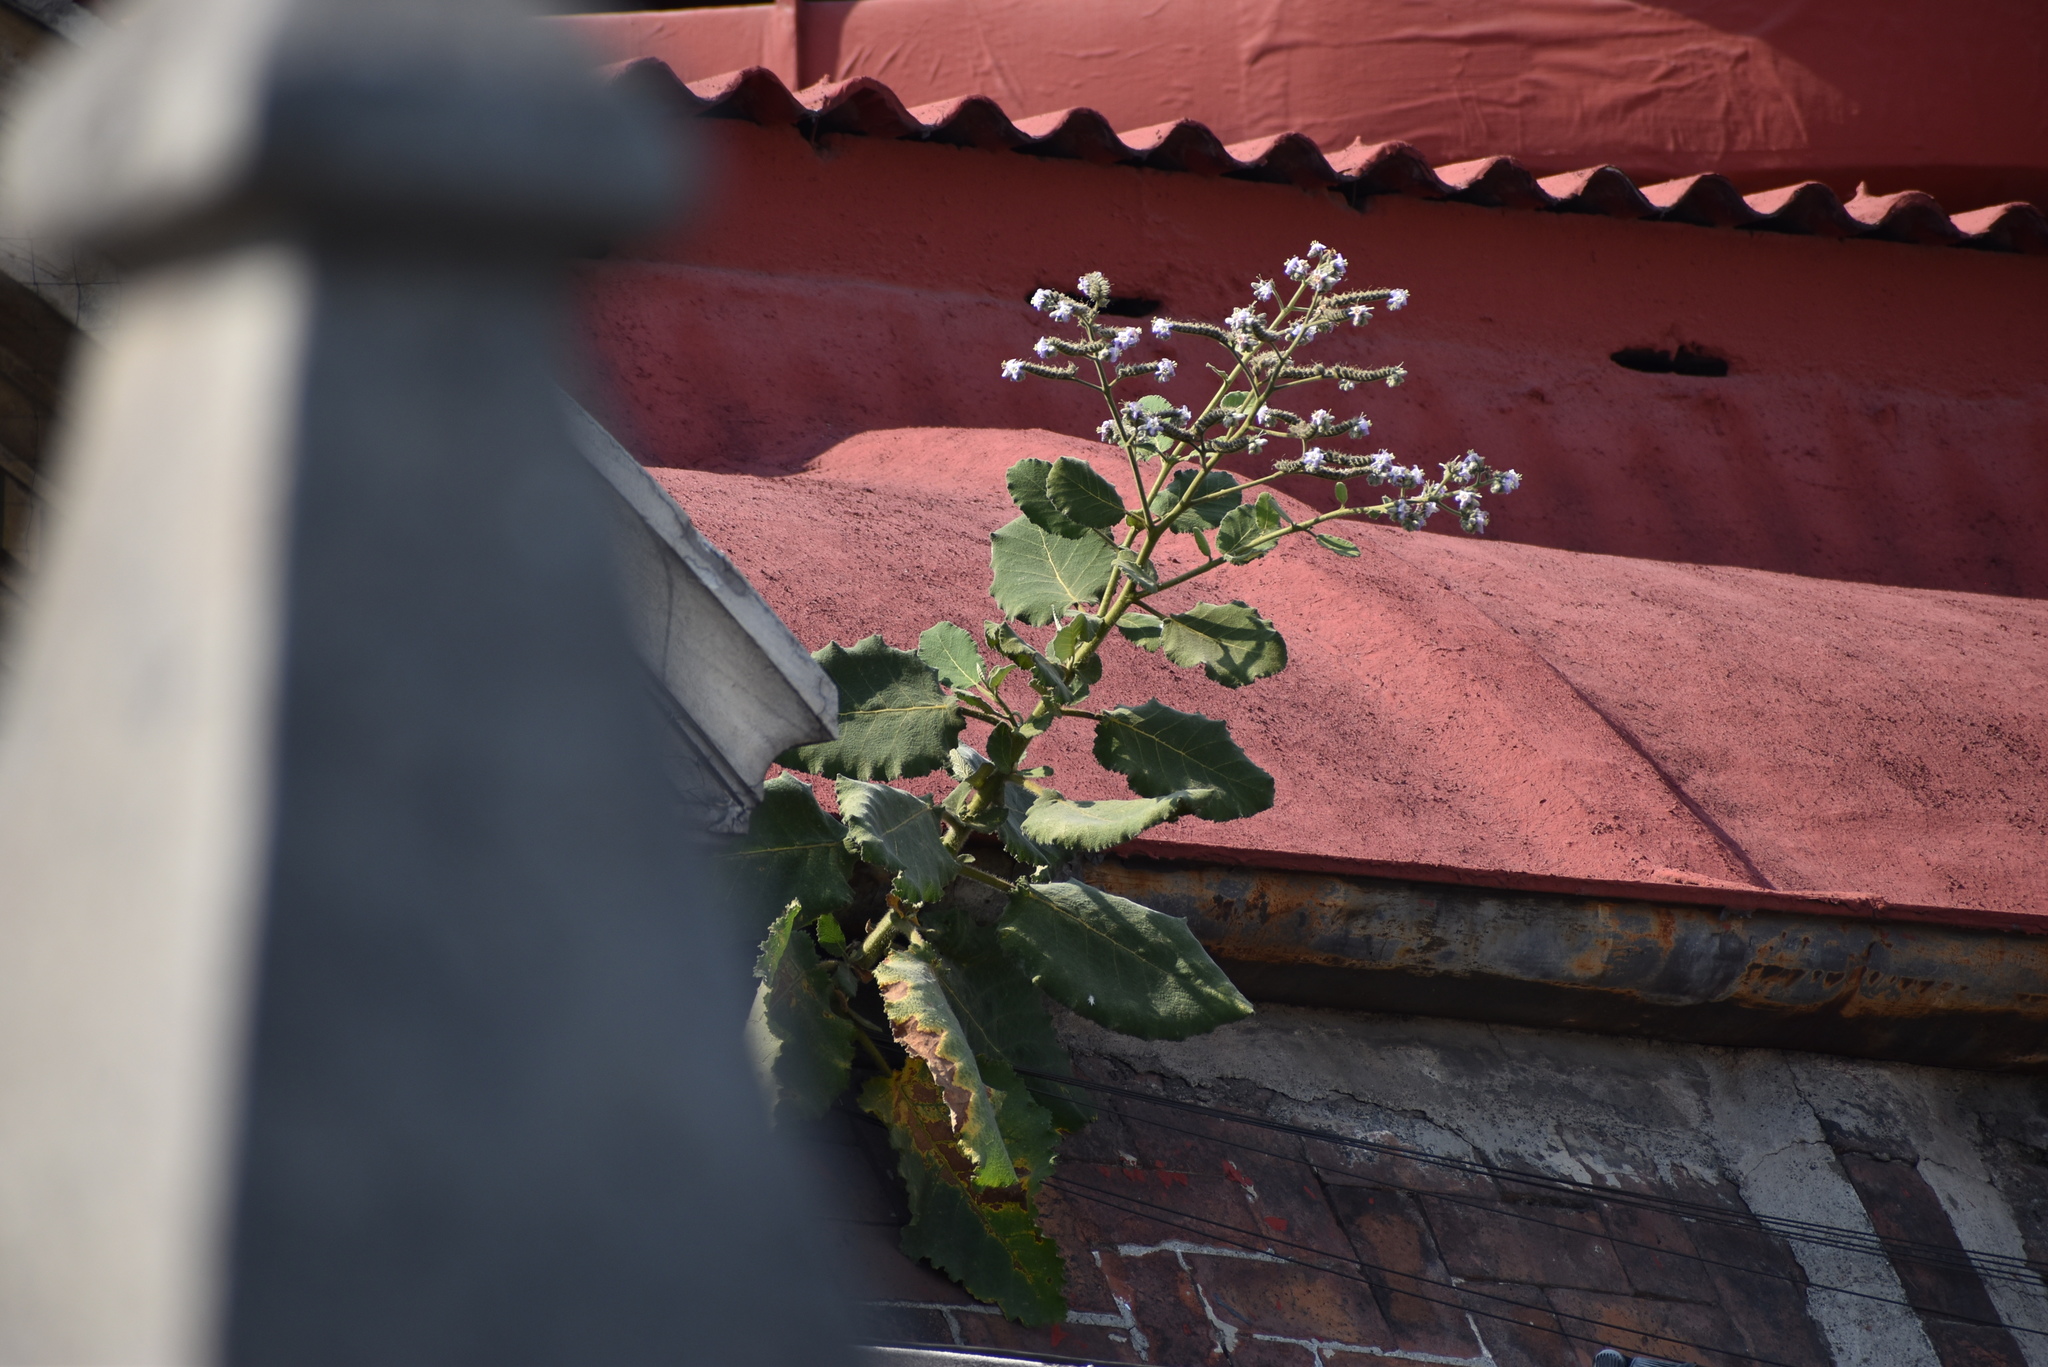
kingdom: Plantae
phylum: Tracheophyta
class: Magnoliopsida
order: Boraginales
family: Namaceae
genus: Wigandia
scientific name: Wigandia urens
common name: Caracus wigandia
